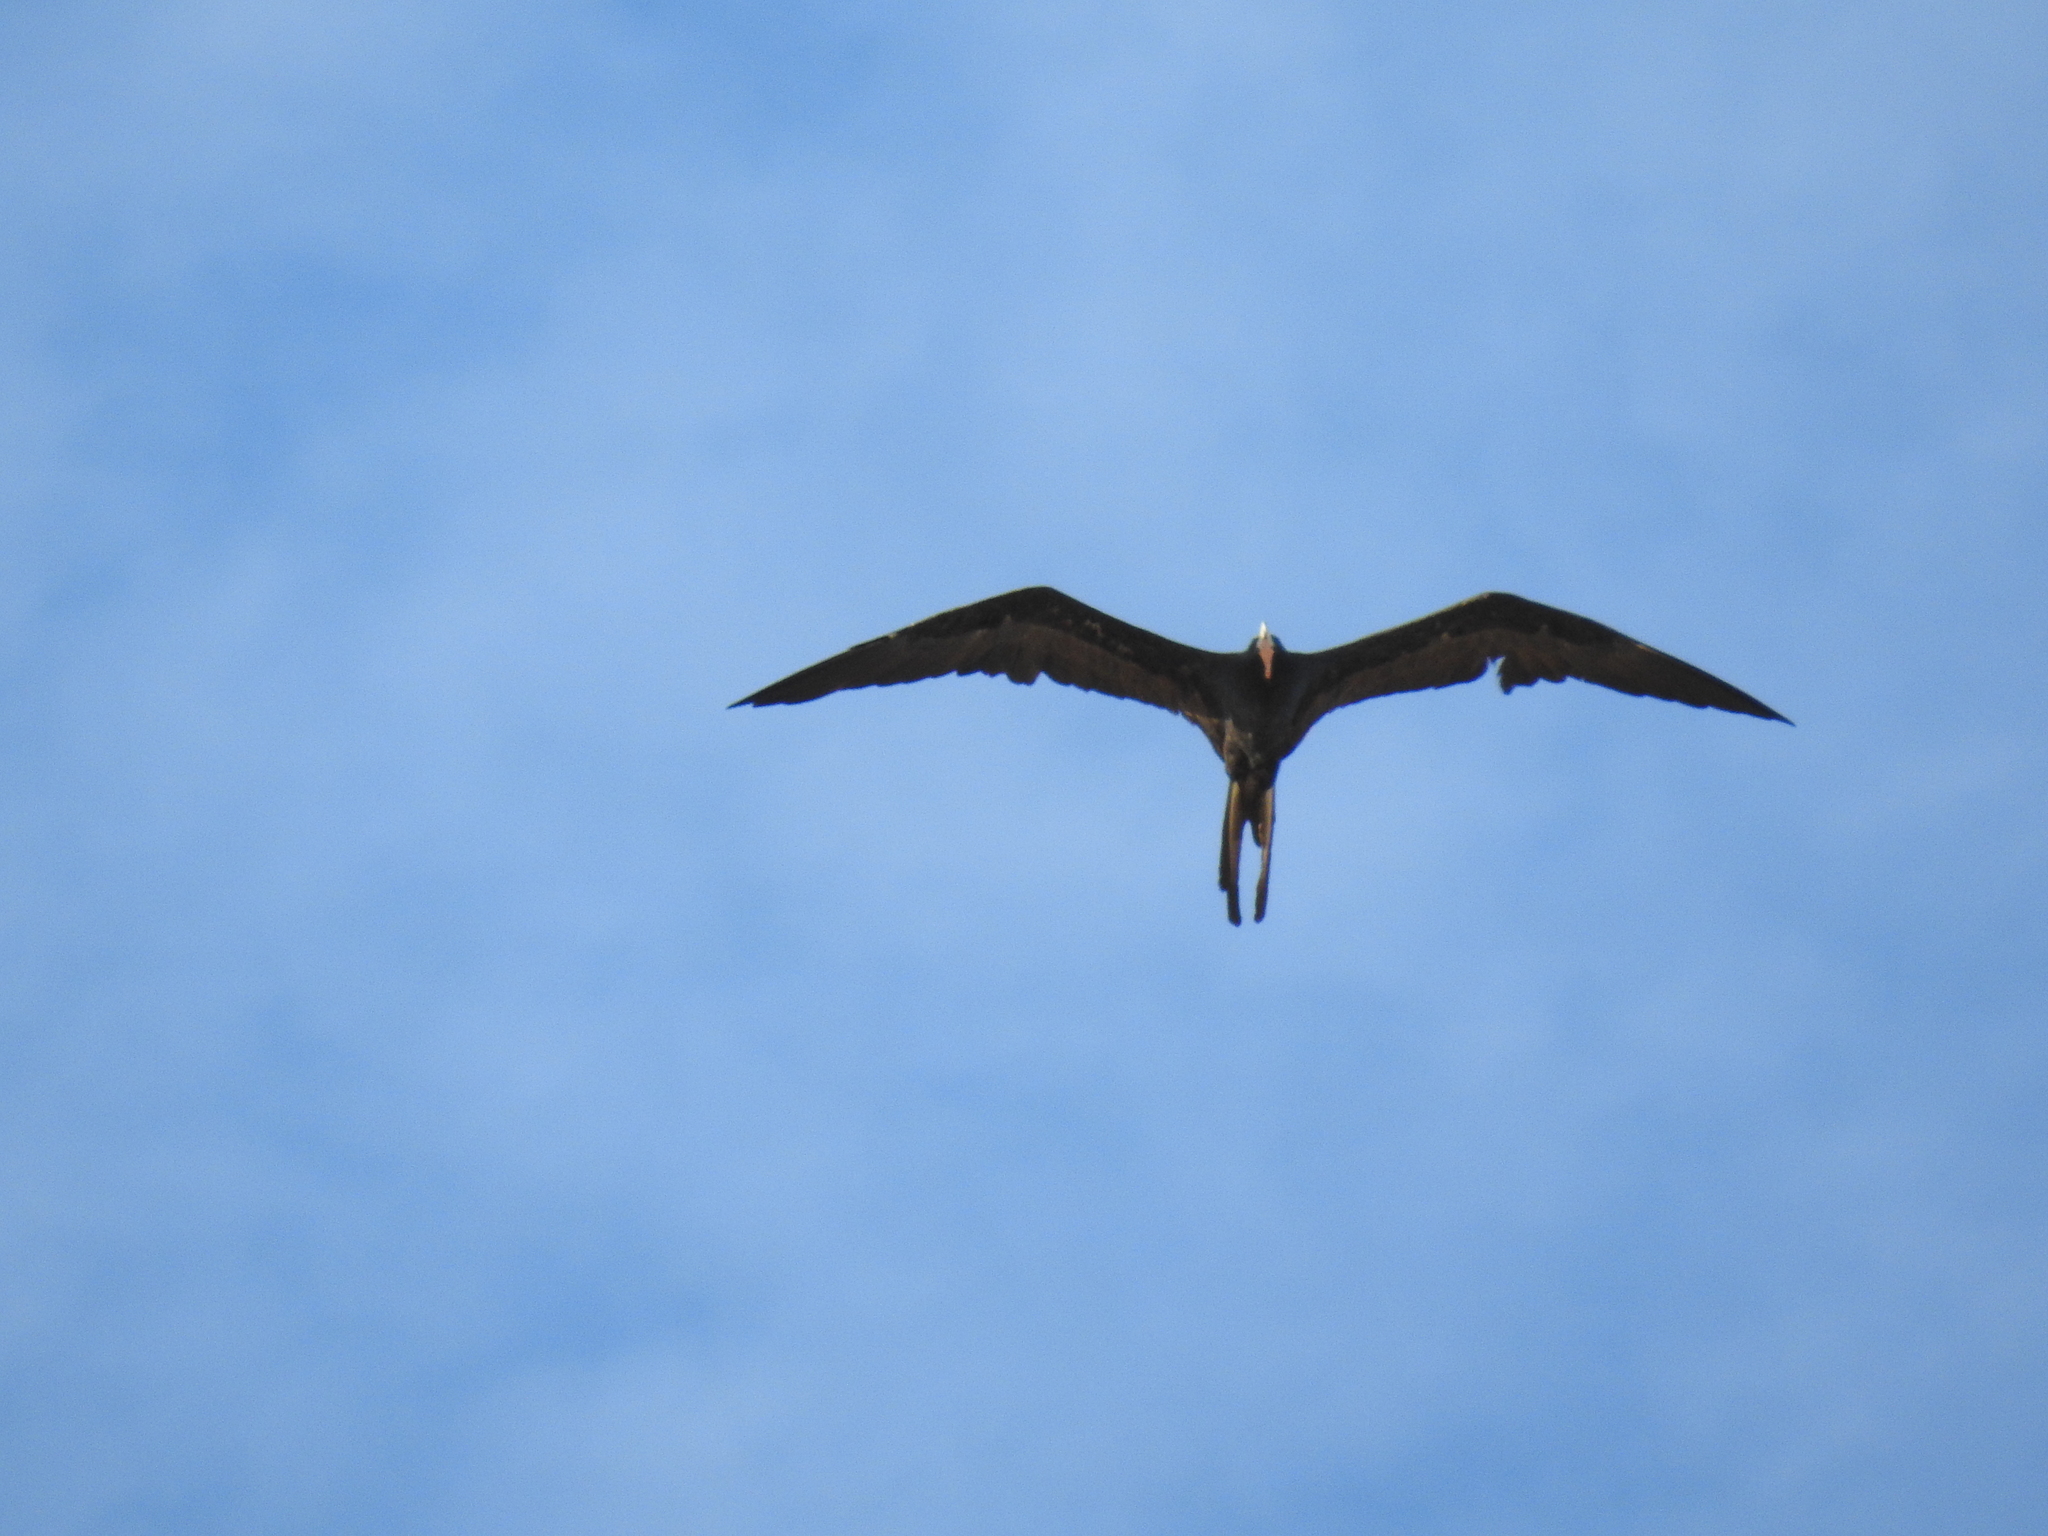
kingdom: Animalia
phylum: Chordata
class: Aves
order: Suliformes
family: Fregatidae
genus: Fregata
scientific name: Fregata magnificens
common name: Magnificent frigatebird
